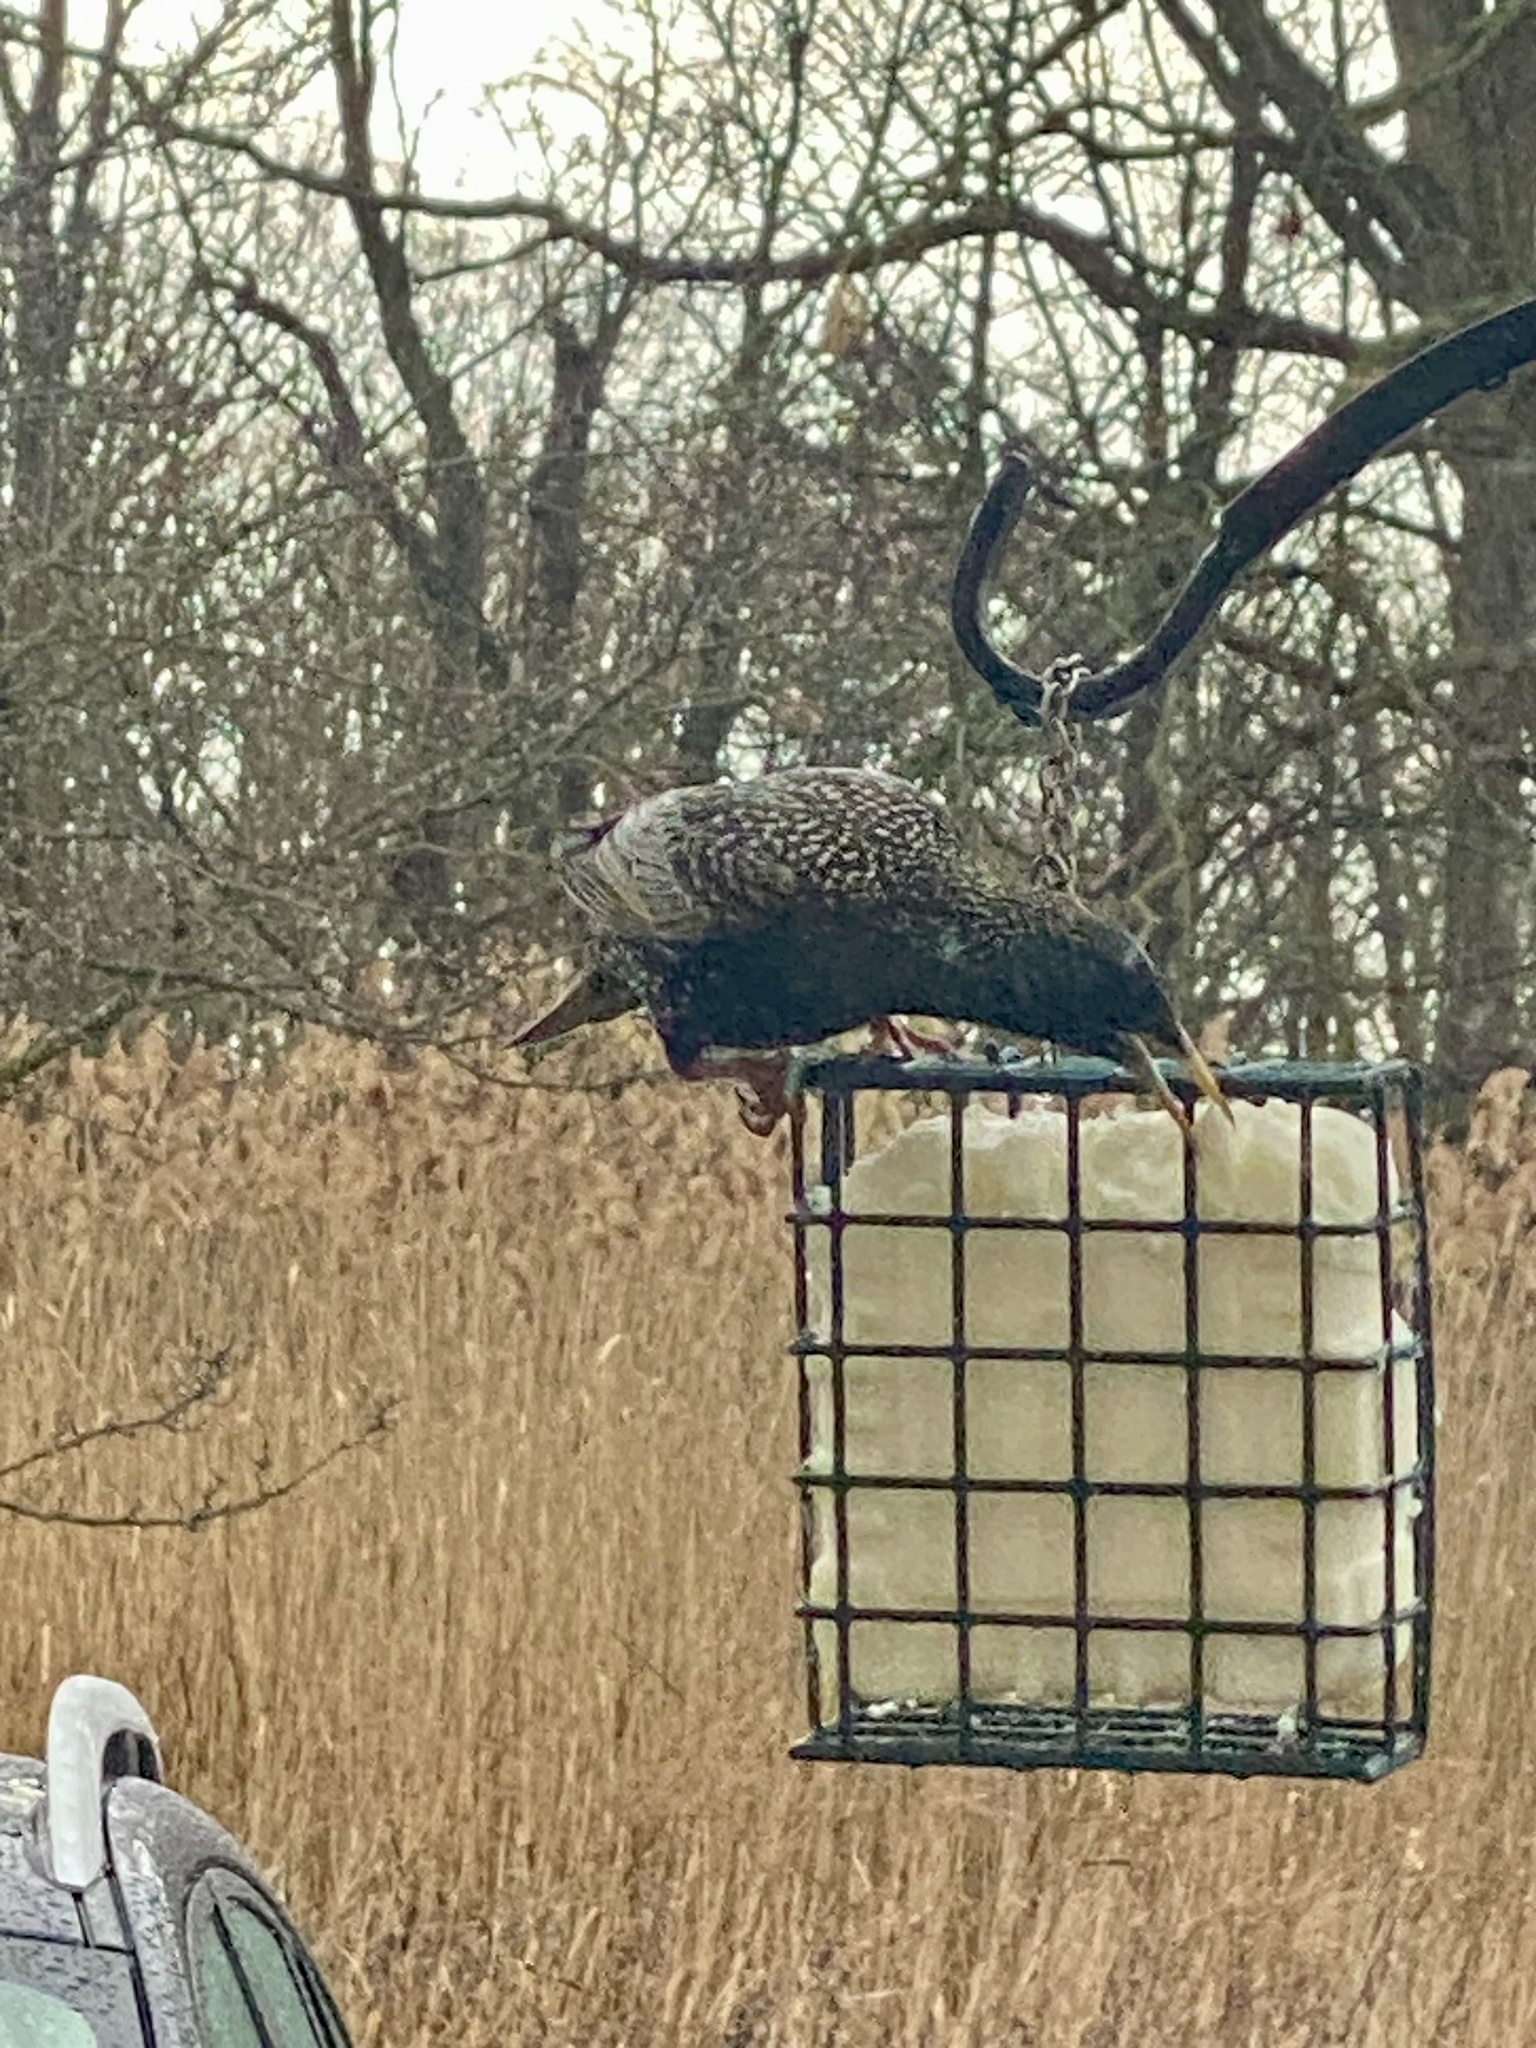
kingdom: Animalia
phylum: Chordata
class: Aves
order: Passeriformes
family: Sturnidae
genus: Sturnus
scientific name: Sturnus vulgaris
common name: Common starling
